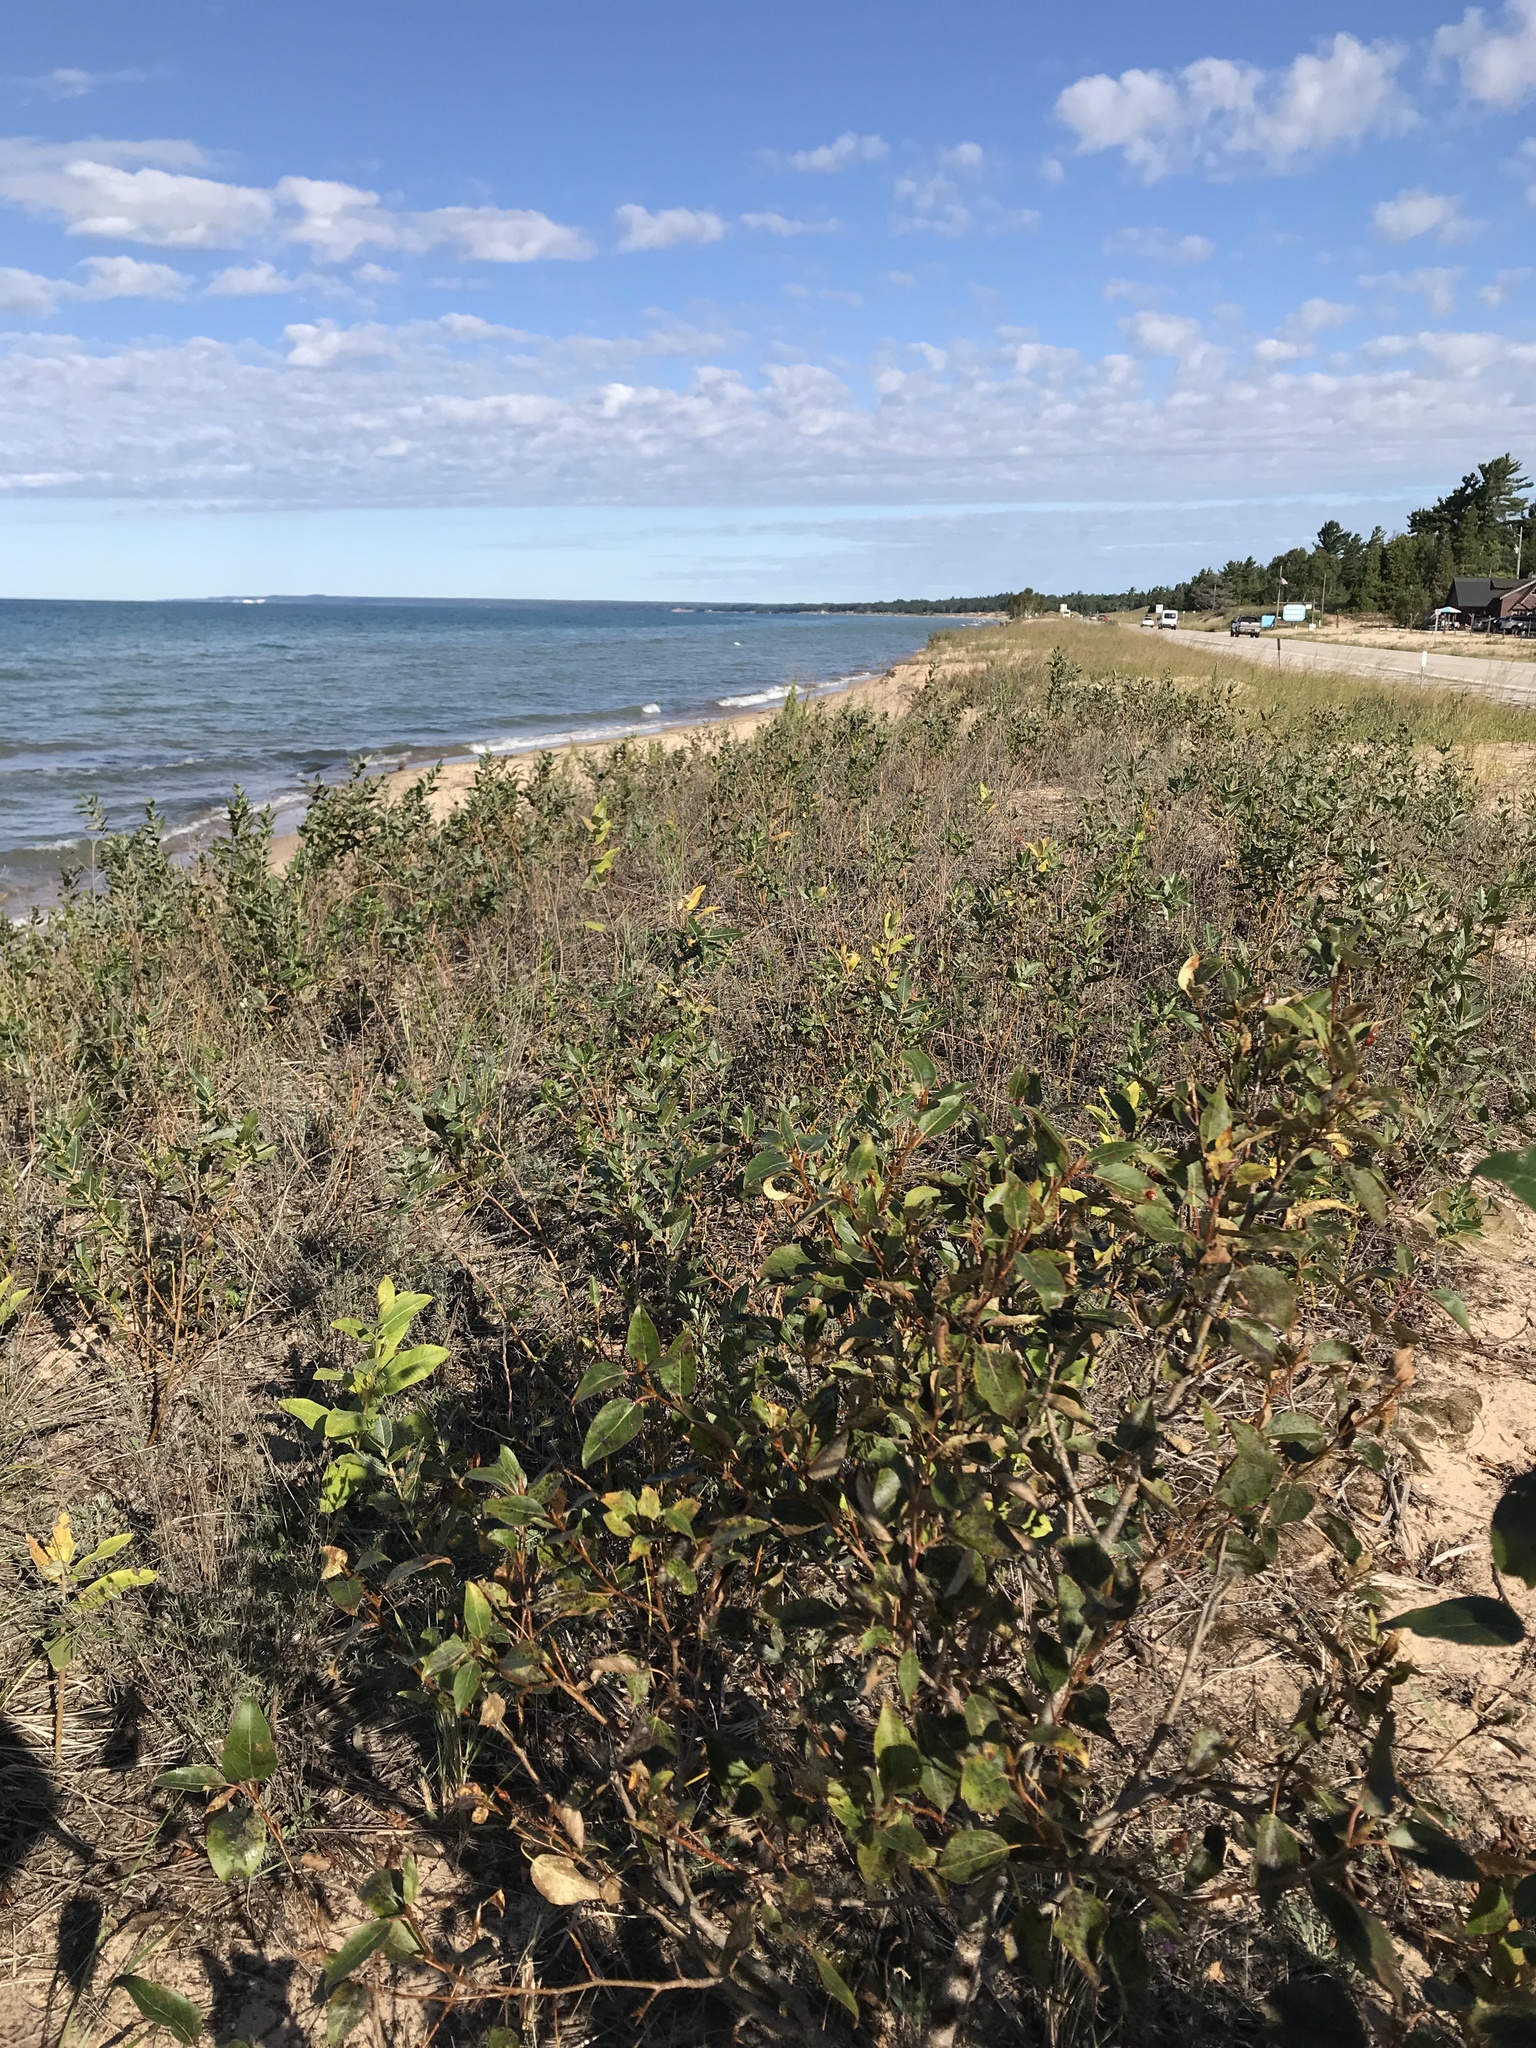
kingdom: Plantae
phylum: Tracheophyta
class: Magnoliopsida
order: Malpighiales
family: Salicaceae
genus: Populus
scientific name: Populus balsamifera
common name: Balsam poplar
